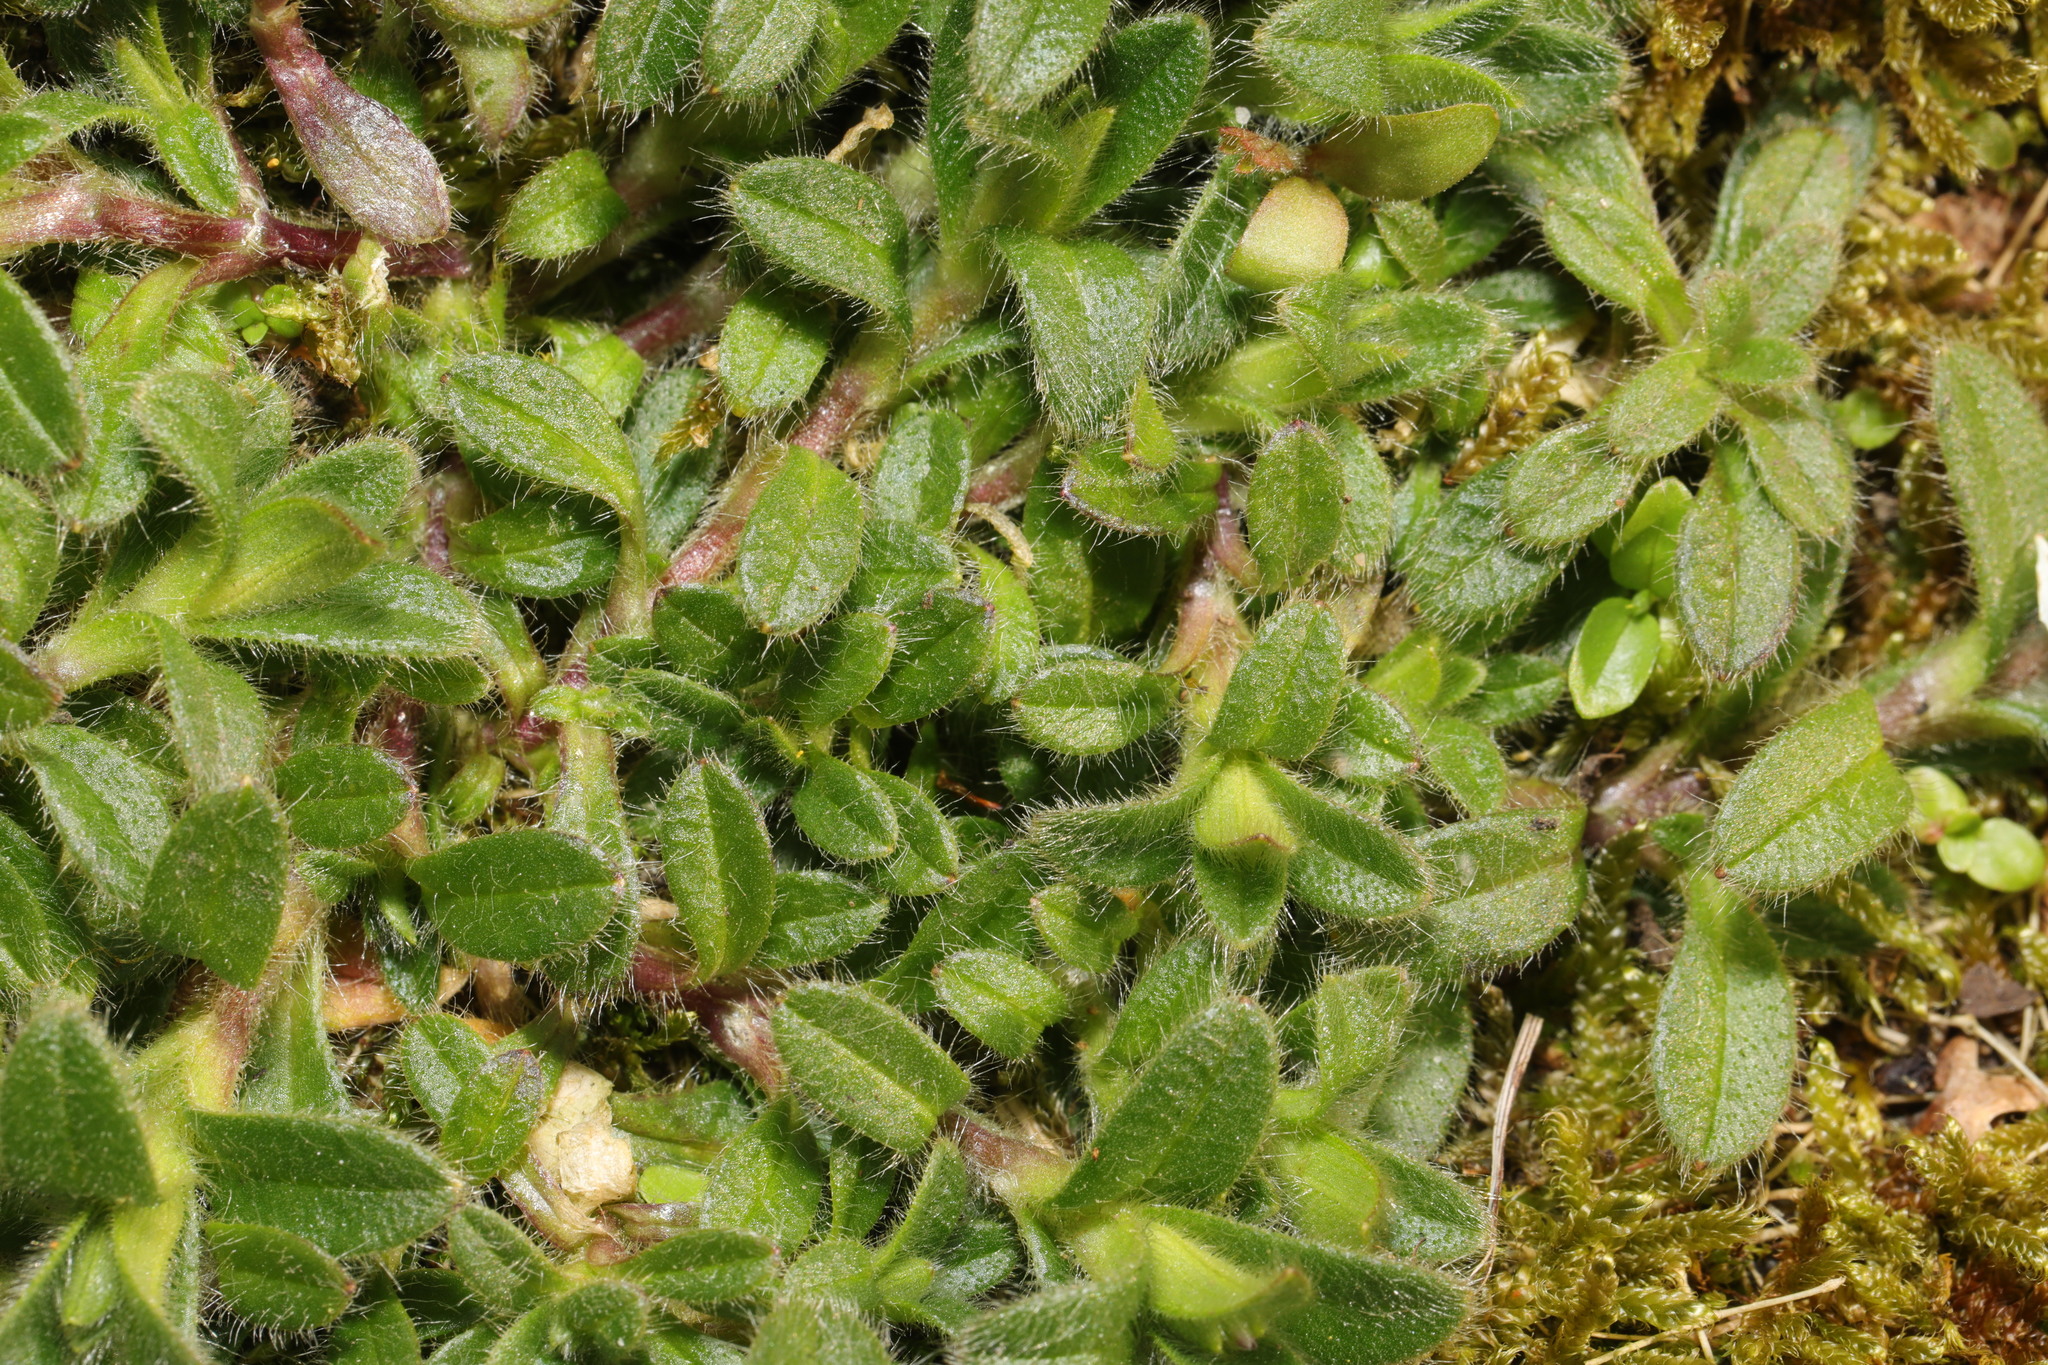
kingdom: Plantae
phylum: Tracheophyta
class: Magnoliopsida
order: Caryophyllales
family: Caryophyllaceae
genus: Cerastium
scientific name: Cerastium fontanum
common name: Common mouse-ear
